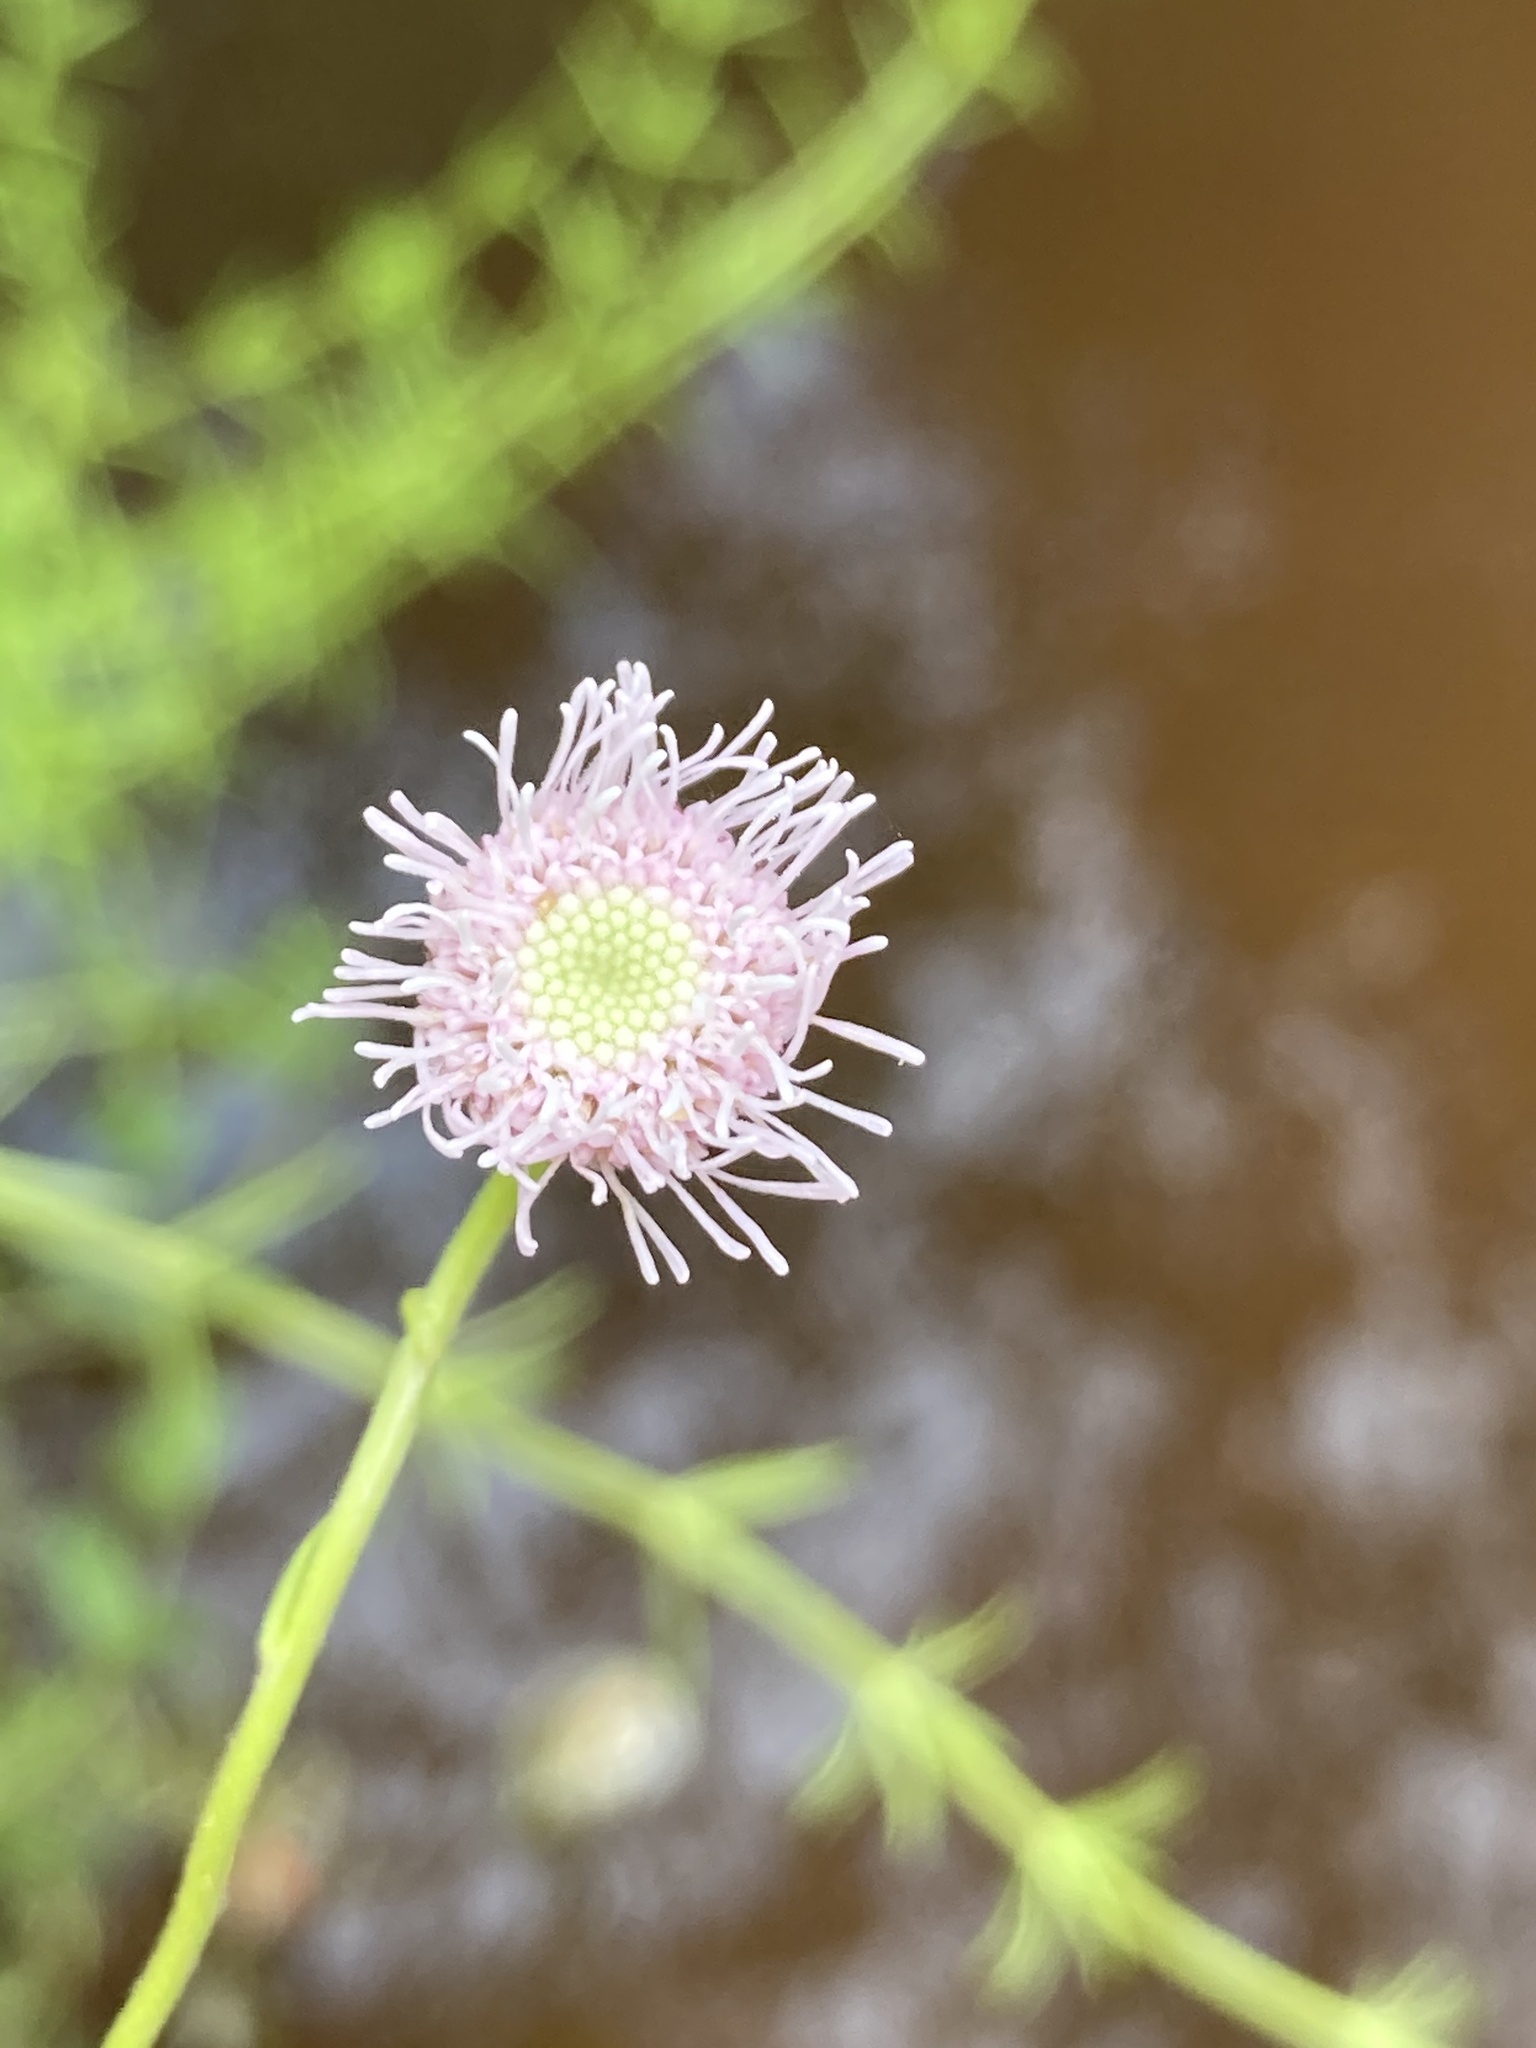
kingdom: Plantae
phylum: Tracheophyta
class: Magnoliopsida
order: Asterales
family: Asteraceae
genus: Sclerolepis
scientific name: Sclerolepis uniflora
